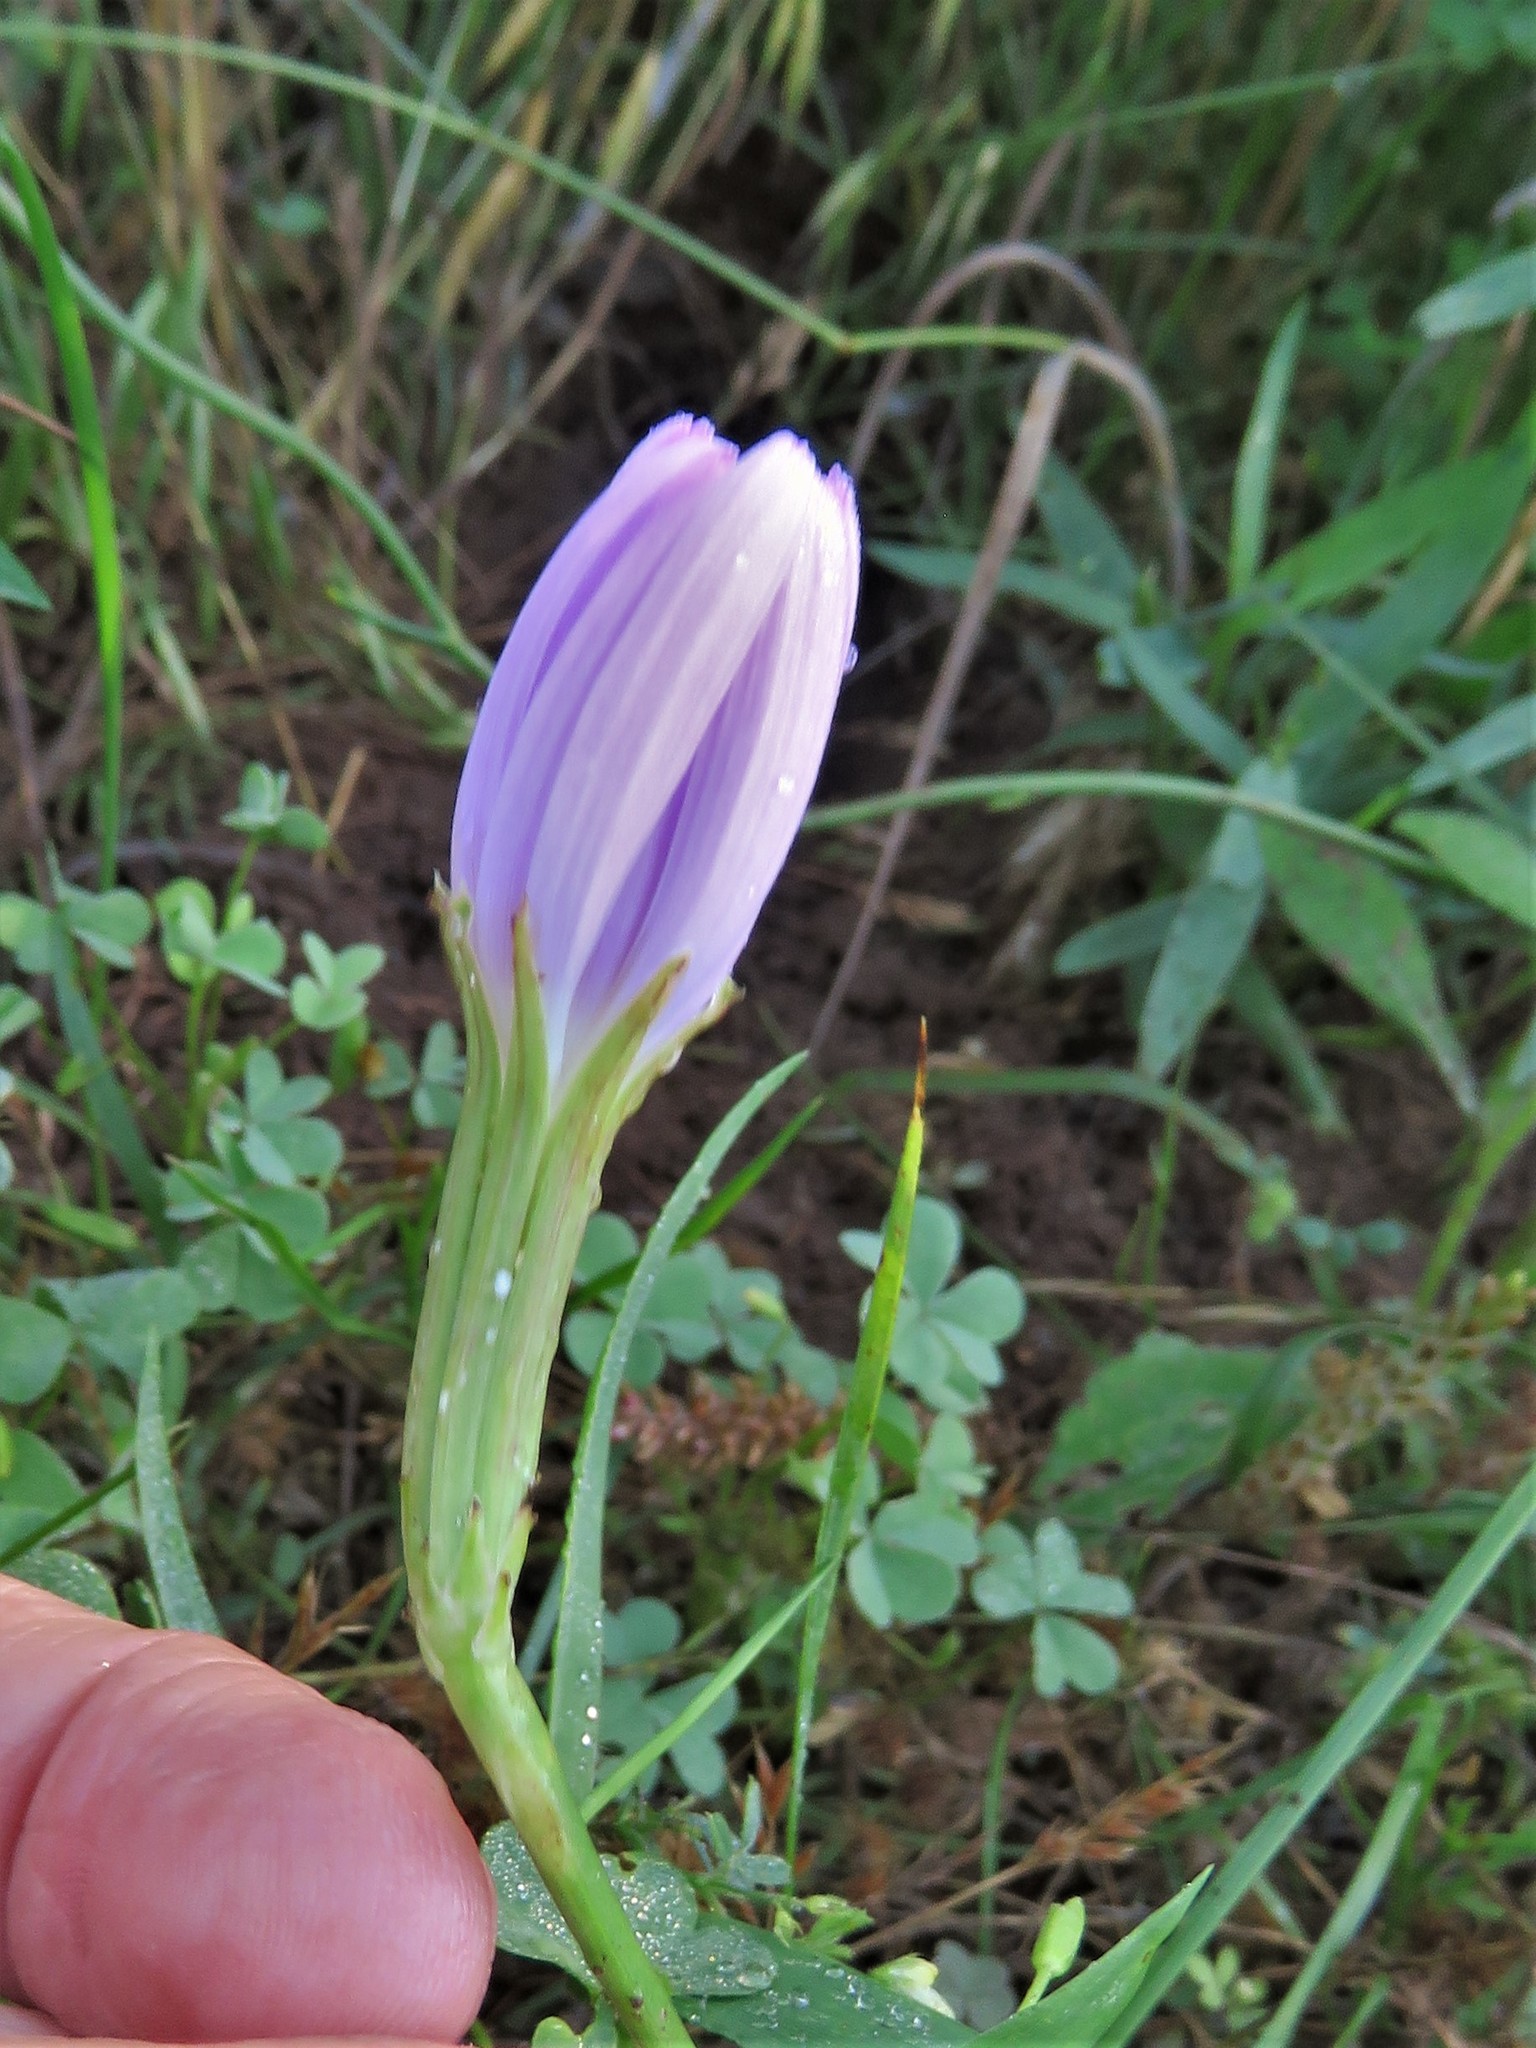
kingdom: Plantae
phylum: Tracheophyta
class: Magnoliopsida
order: Asterales
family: Asteraceae
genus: Lygodesmia
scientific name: Lygodesmia texana
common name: Texas skeleton-plant
